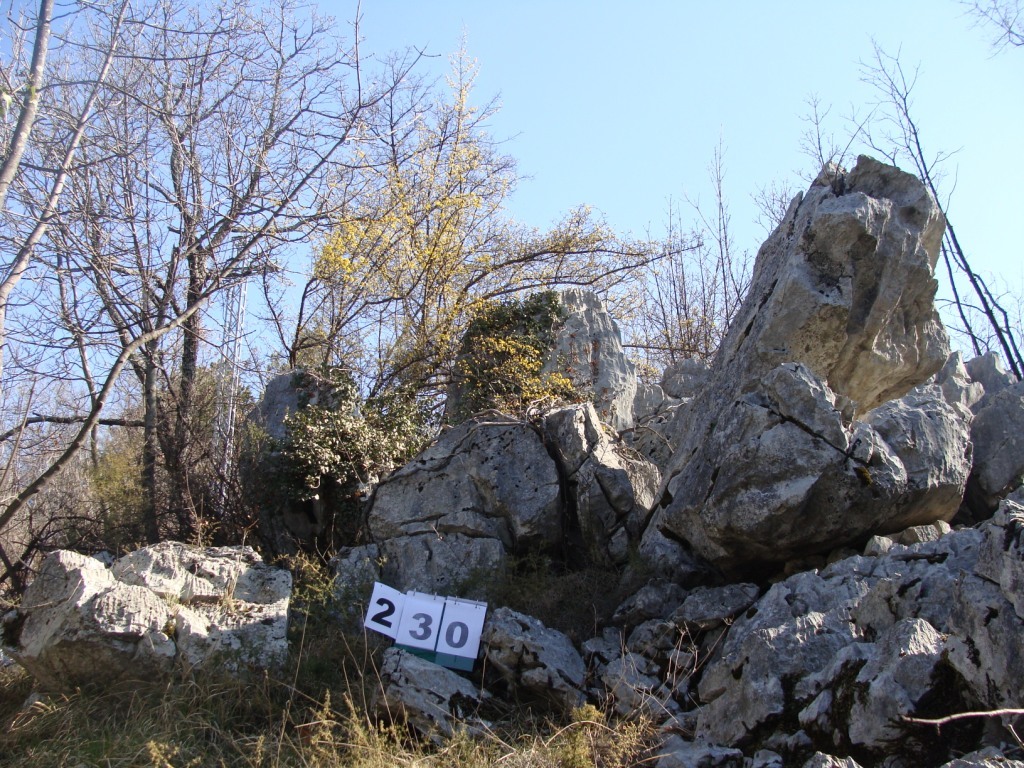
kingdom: Plantae
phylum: Tracheophyta
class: Magnoliopsida
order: Cornales
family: Cornaceae
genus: Cornus
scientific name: Cornus mas
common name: Cornelian-cherry
